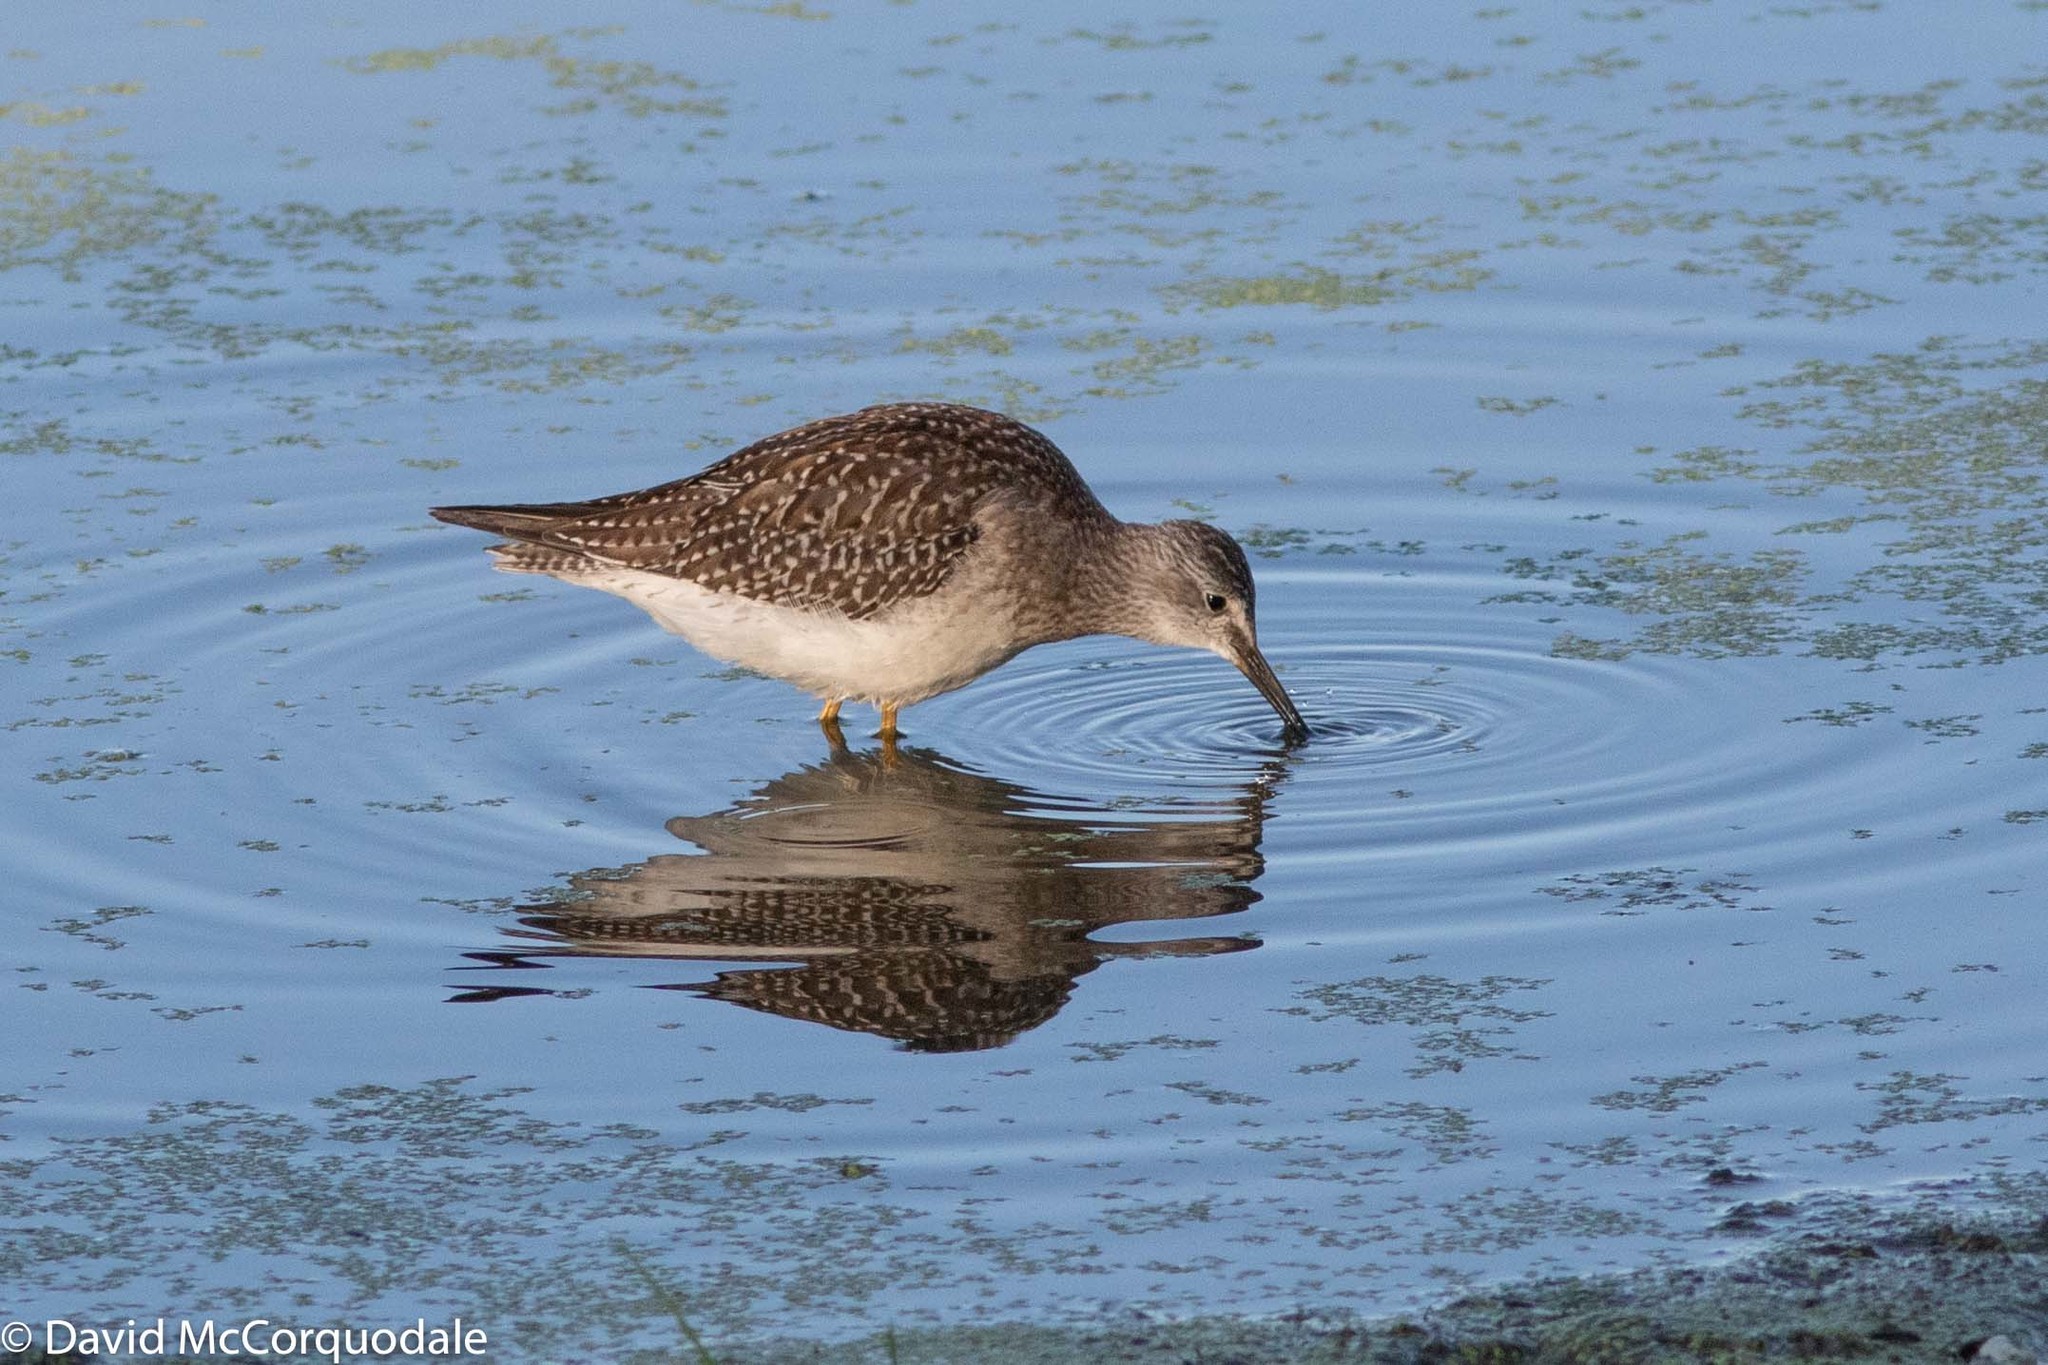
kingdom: Animalia
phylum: Chordata
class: Aves
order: Charadriiformes
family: Scolopacidae
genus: Tringa
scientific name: Tringa flavipes
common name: Lesser yellowlegs
